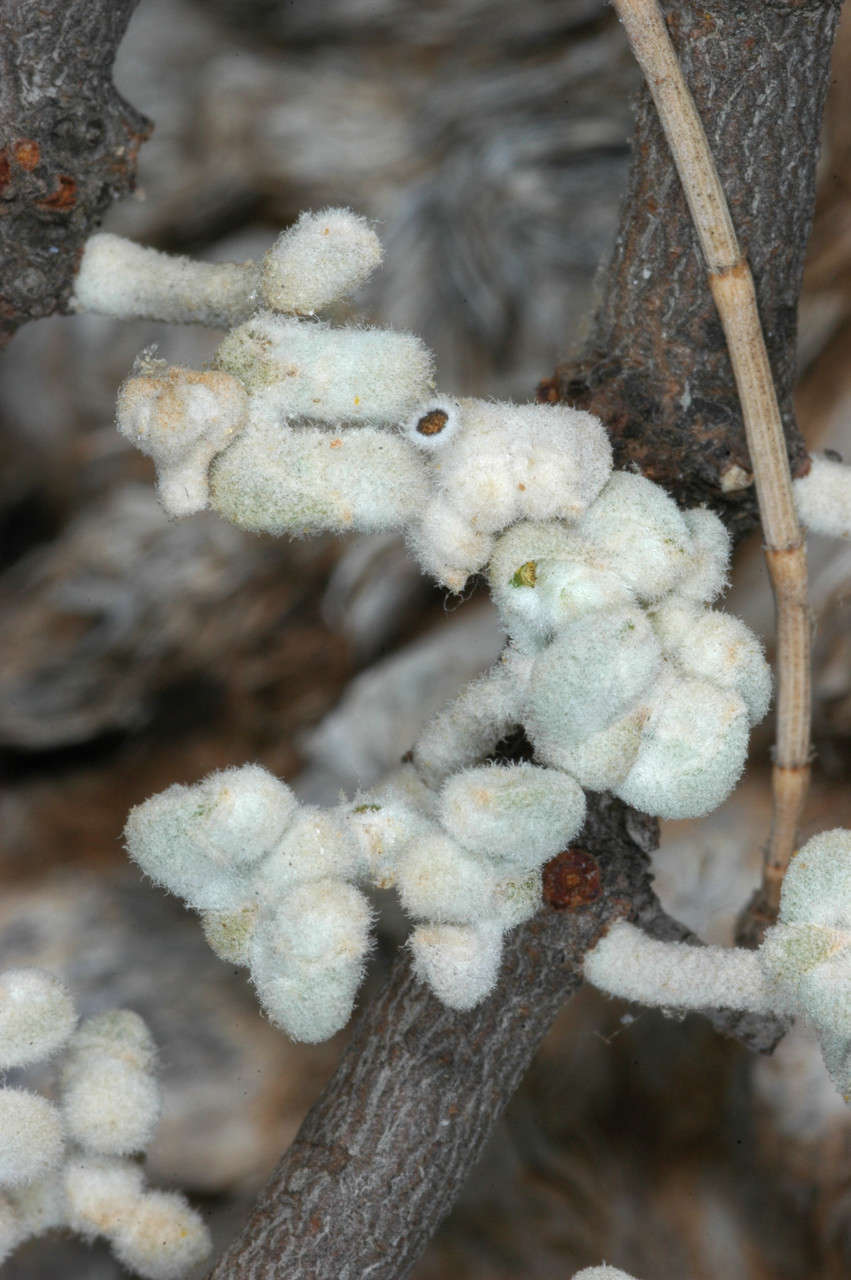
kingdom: Plantae
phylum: Tracheophyta
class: Magnoliopsida
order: Santalales
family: Loranthaceae
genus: Amyema
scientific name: Amyema linophylla
